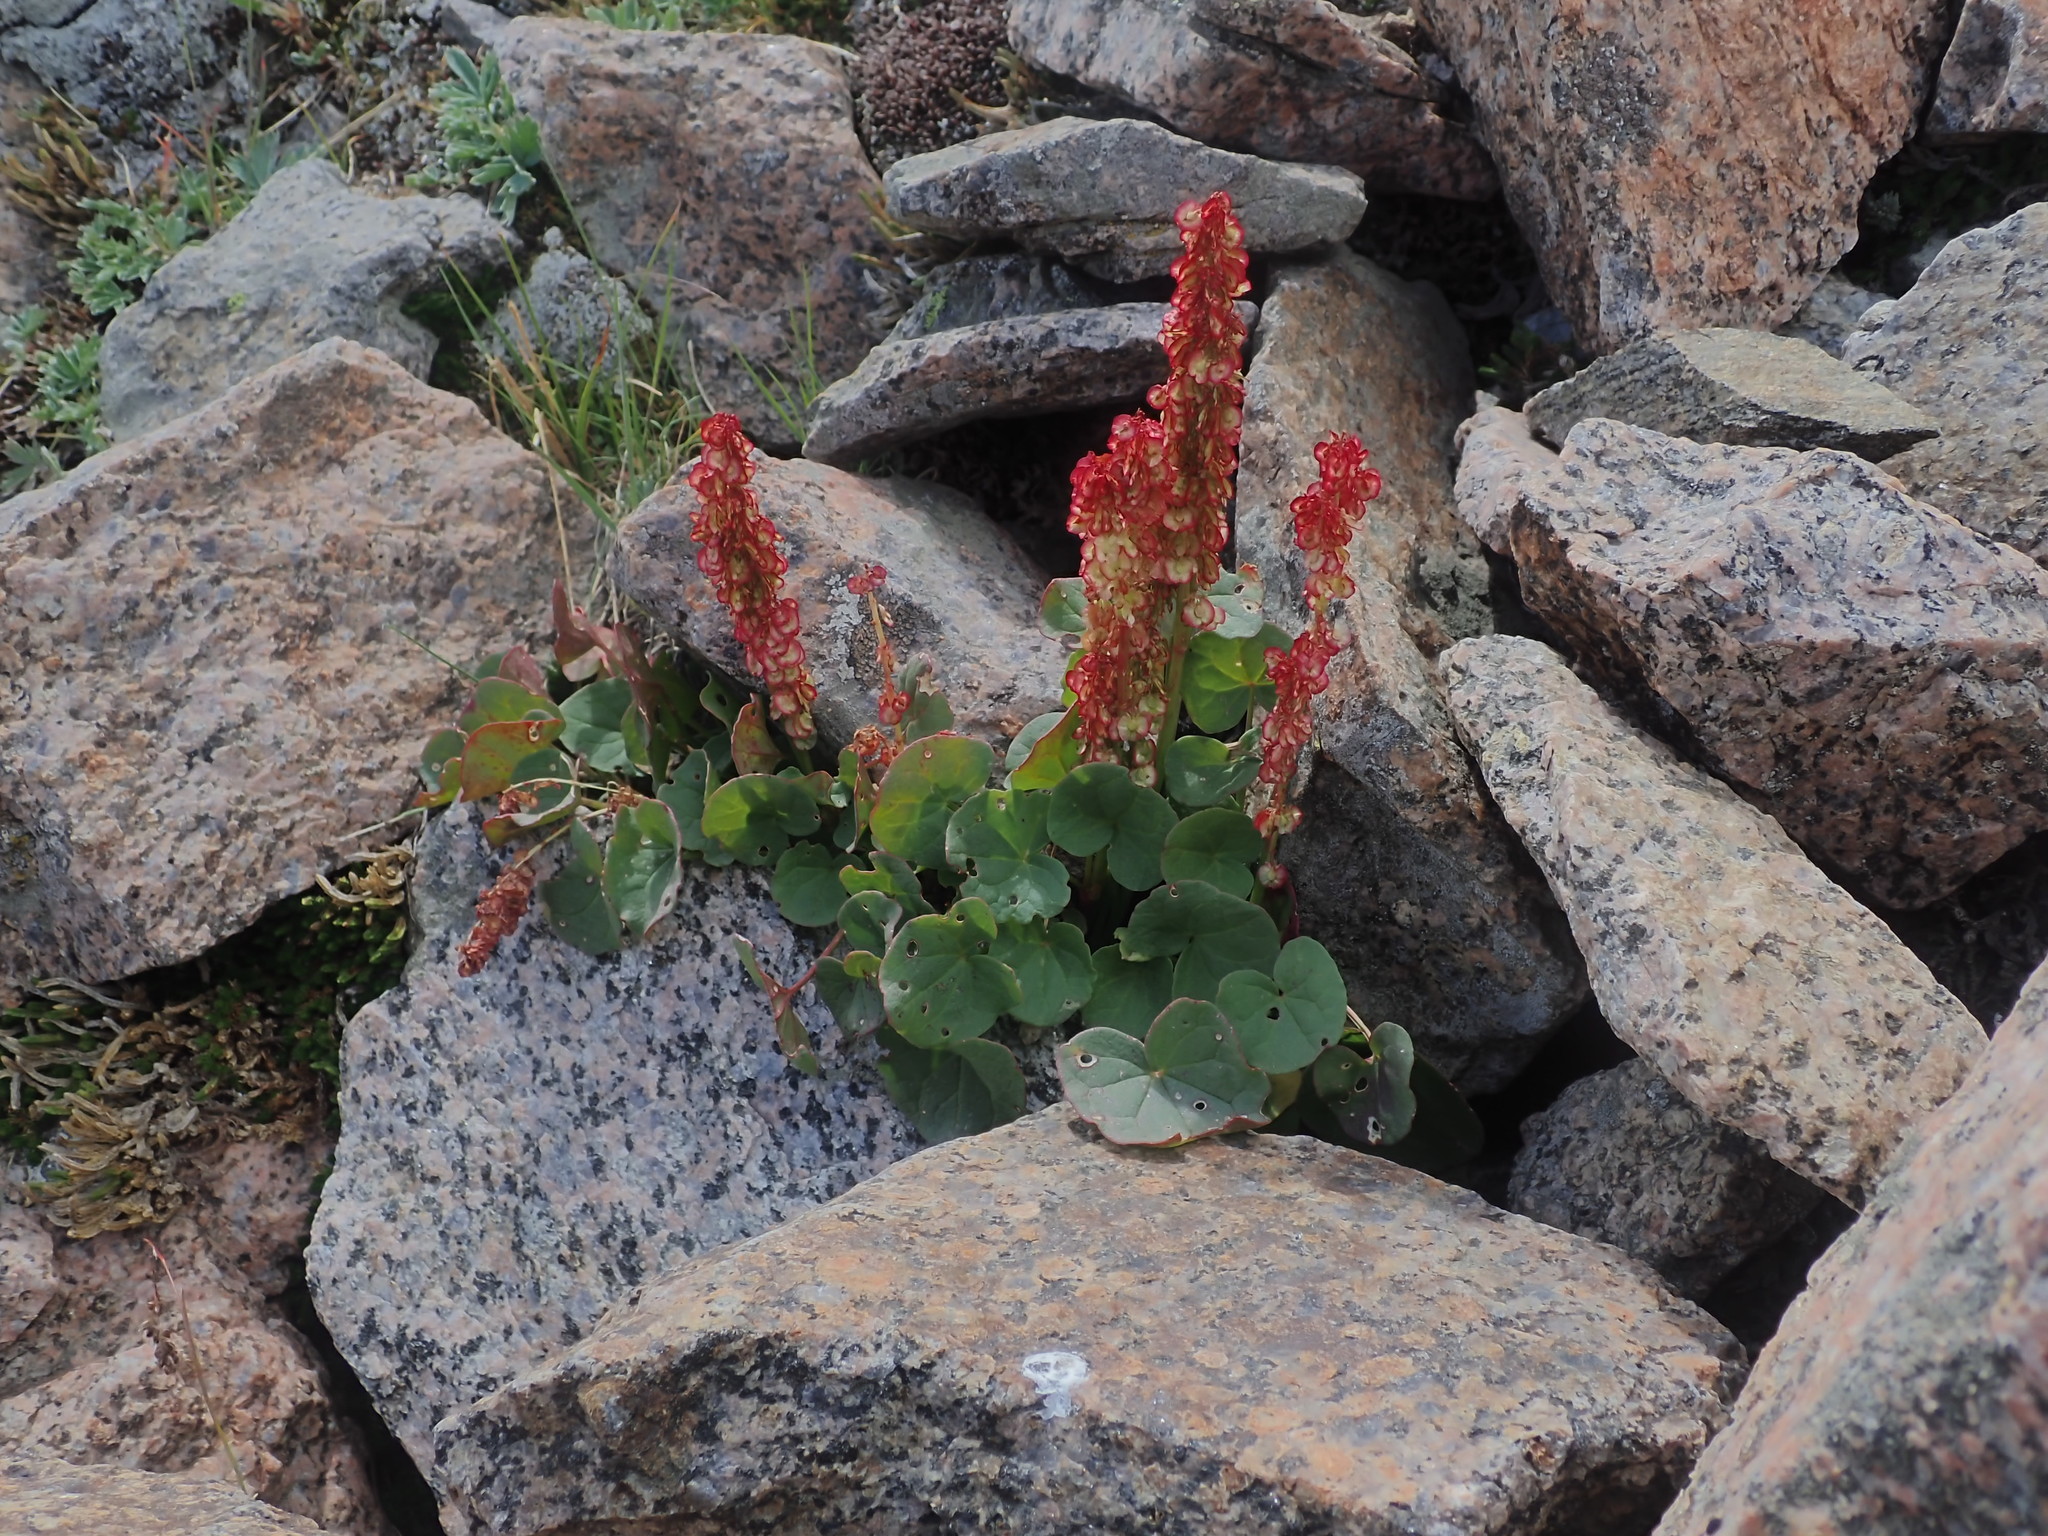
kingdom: Plantae
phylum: Tracheophyta
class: Magnoliopsida
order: Caryophyllales
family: Polygonaceae
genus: Oxyria
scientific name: Oxyria digyna
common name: Alpine mountain-sorrel
